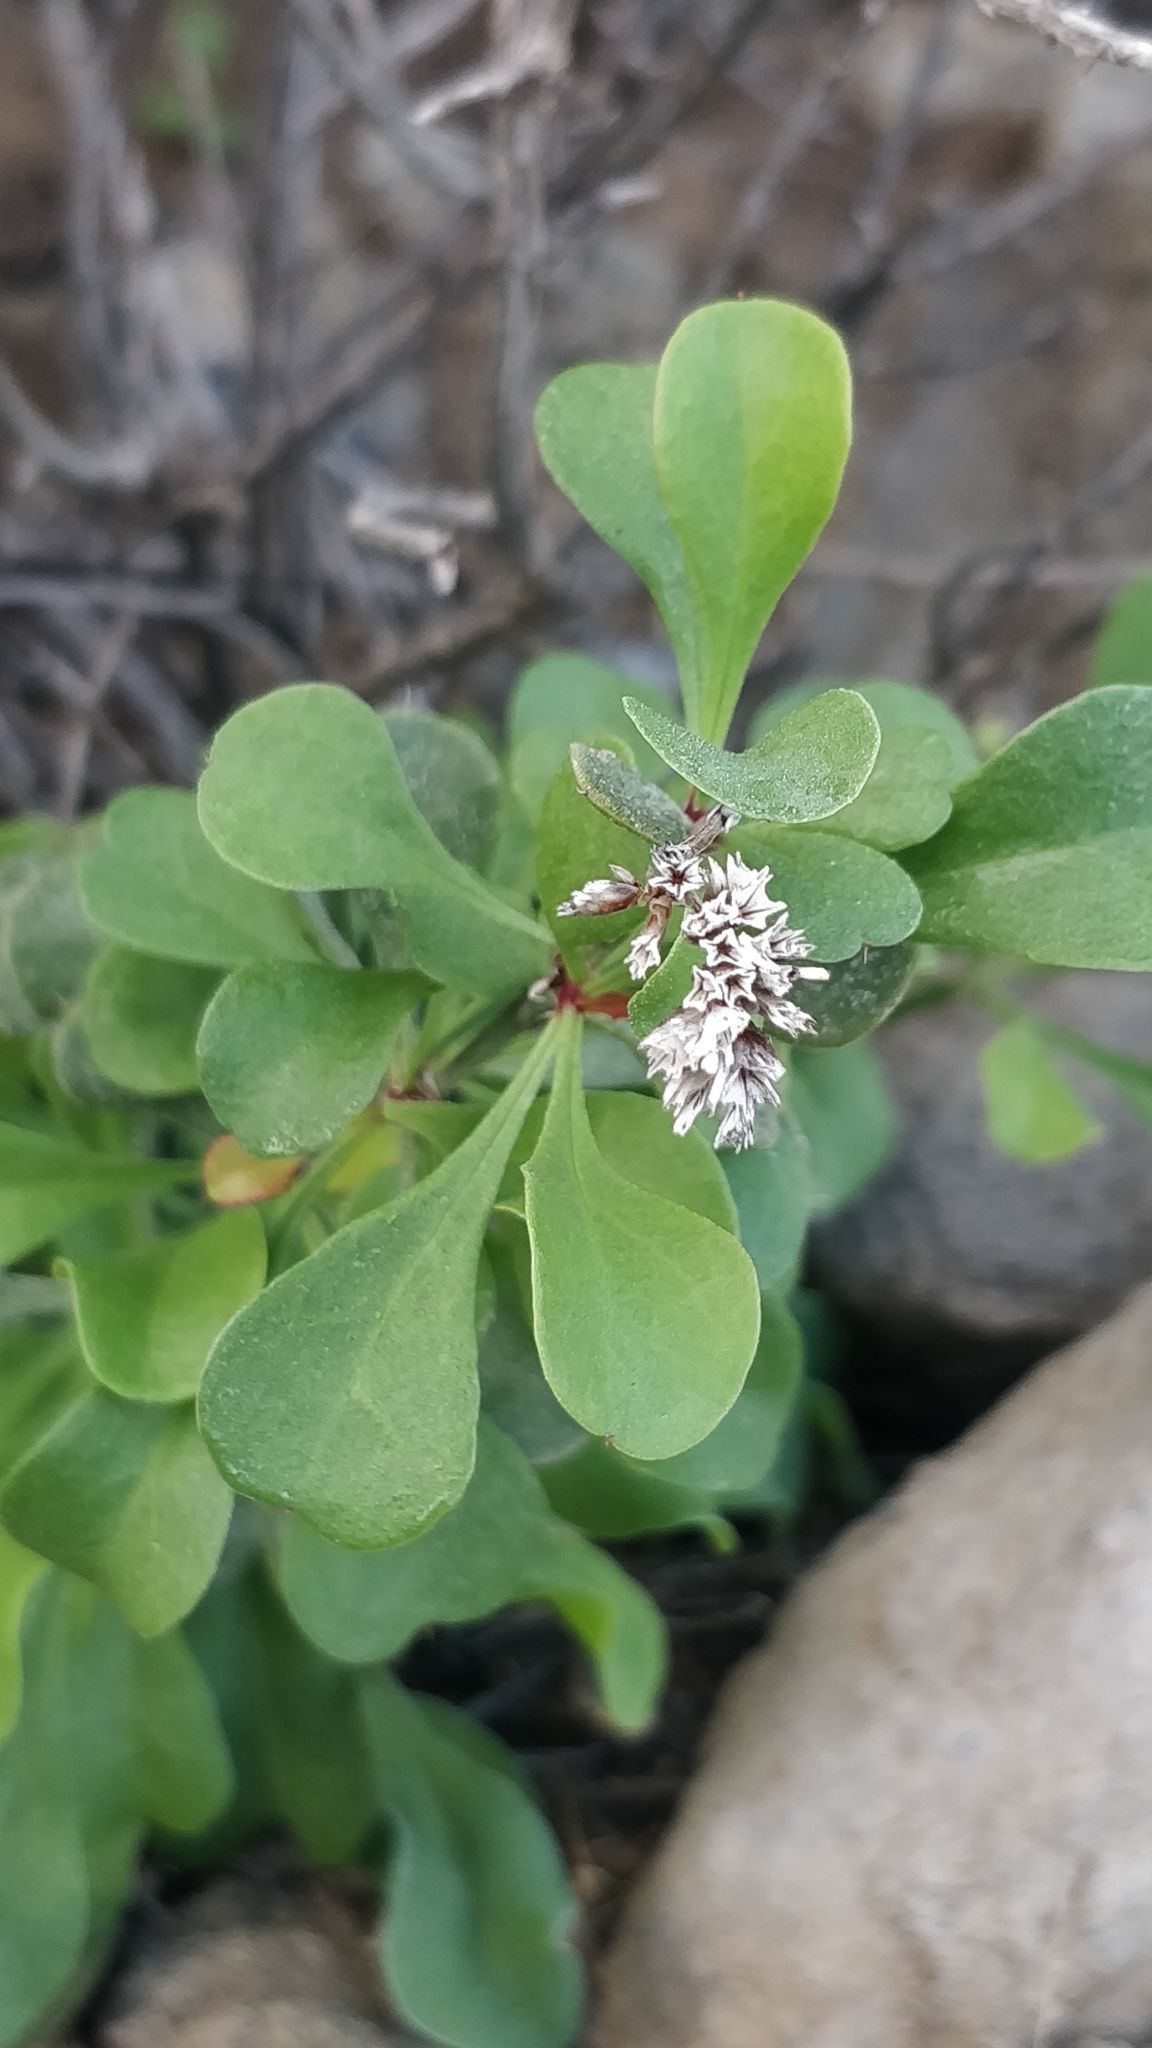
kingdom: Plantae
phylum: Tracheophyta
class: Magnoliopsida
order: Caryophyllales
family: Plumbaginaceae
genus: Limonium
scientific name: Limonium pectinatum
